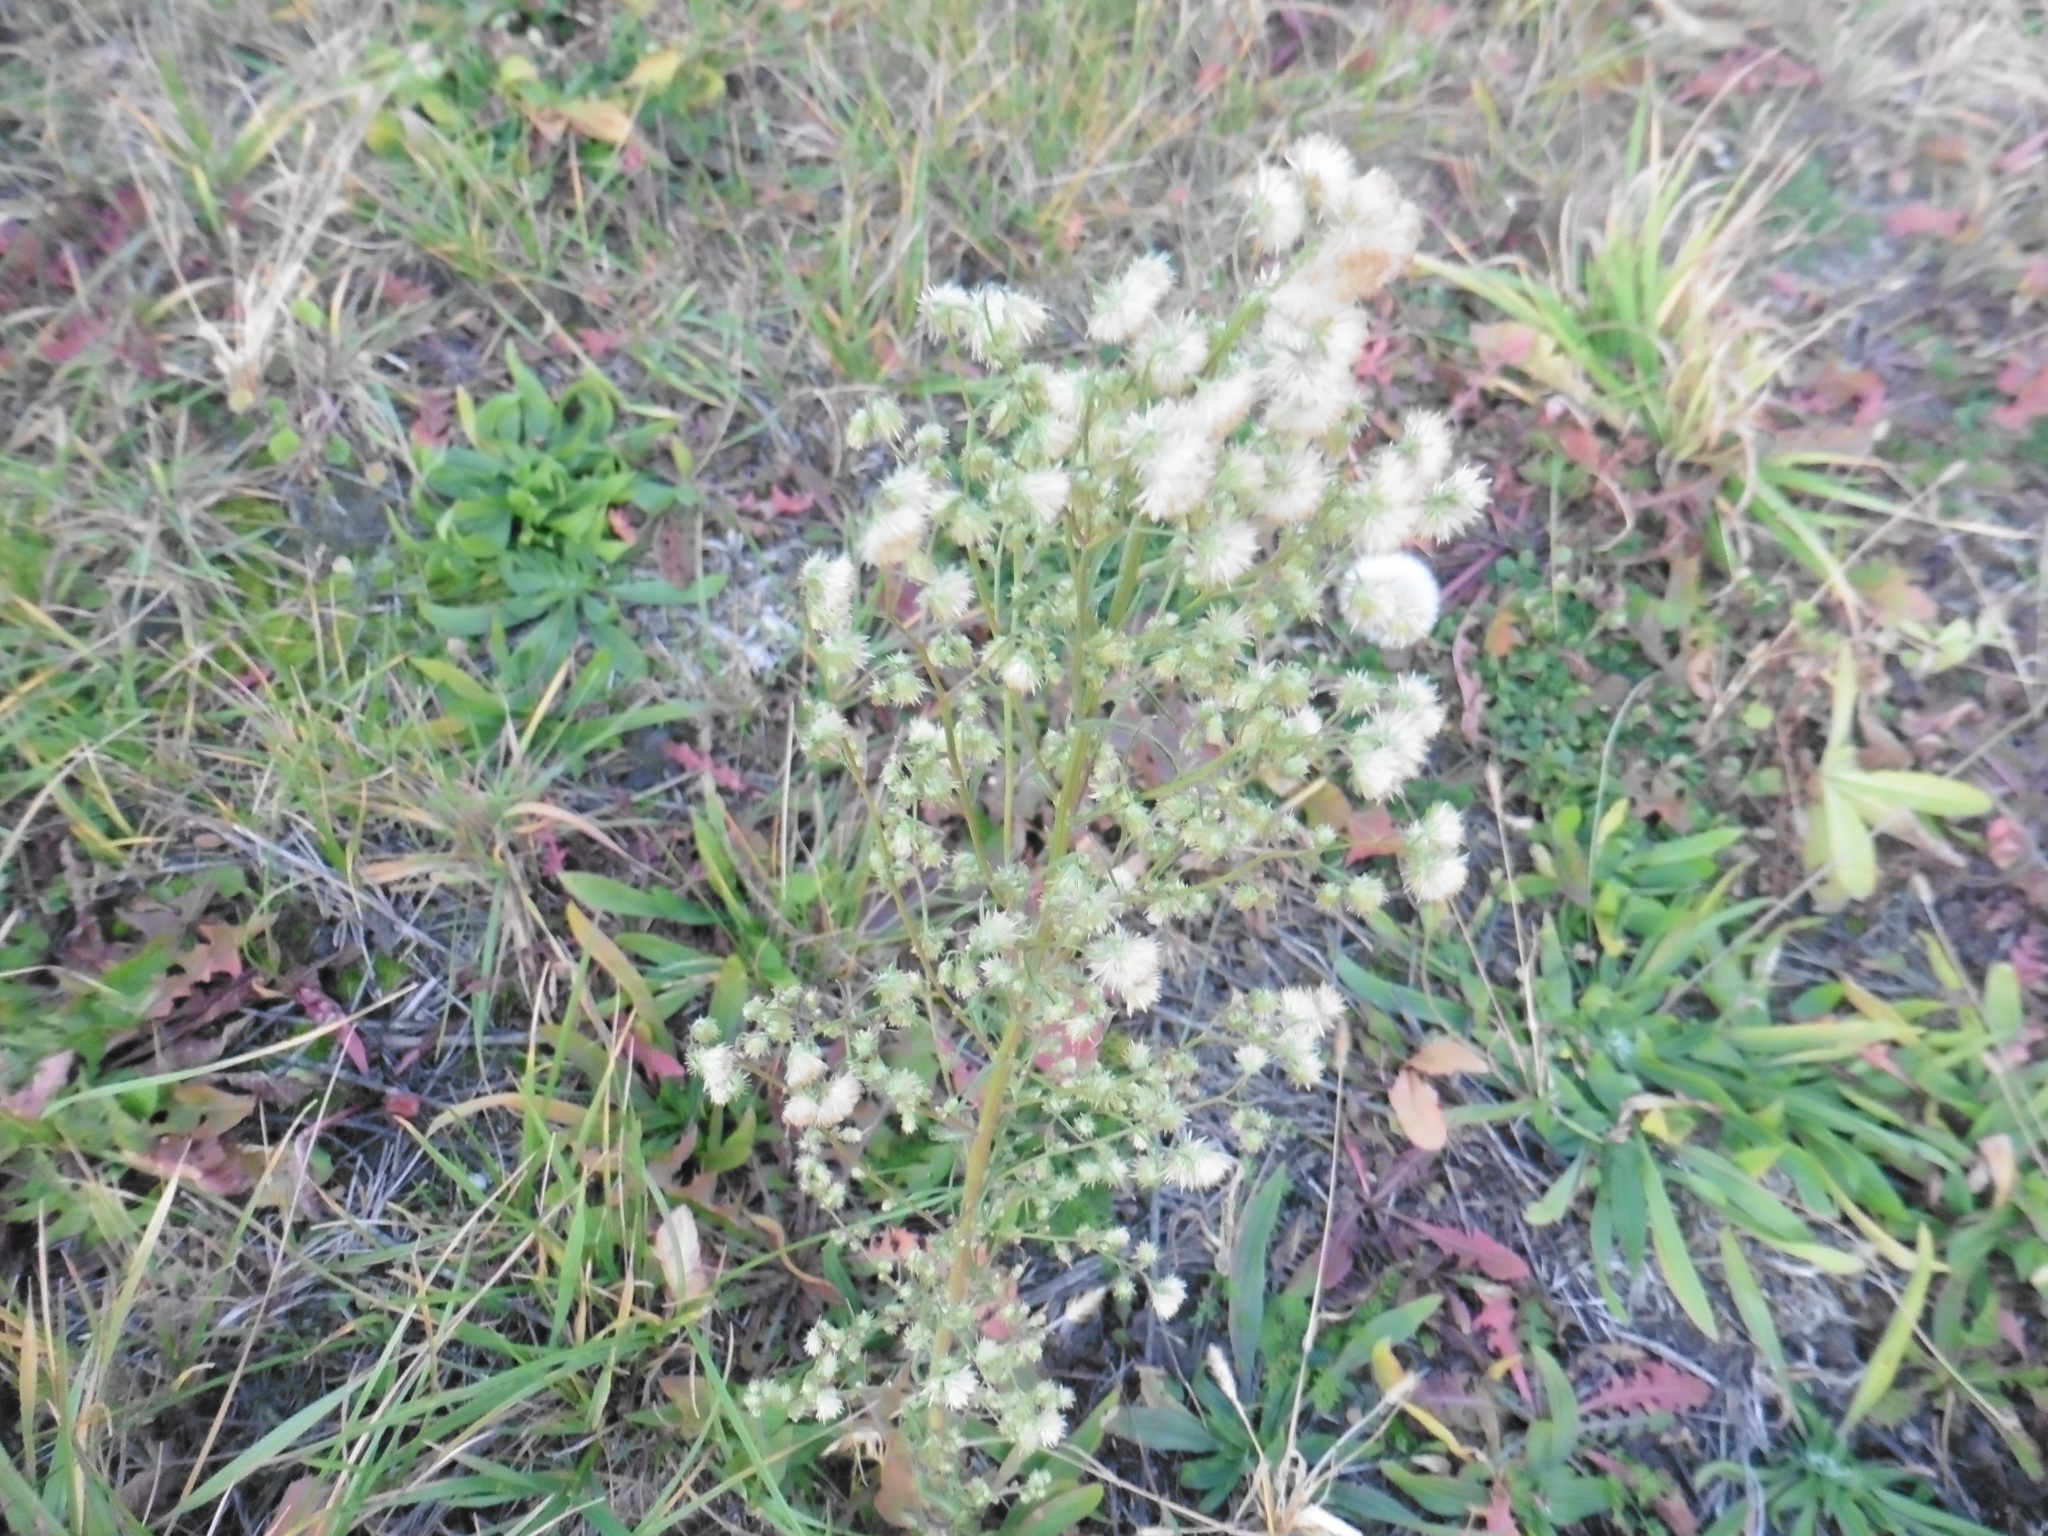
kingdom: Plantae
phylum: Tracheophyta
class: Magnoliopsida
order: Asterales
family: Asteraceae
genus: Erigeron
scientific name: Erigeron canadensis
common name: Canadian fleabane
